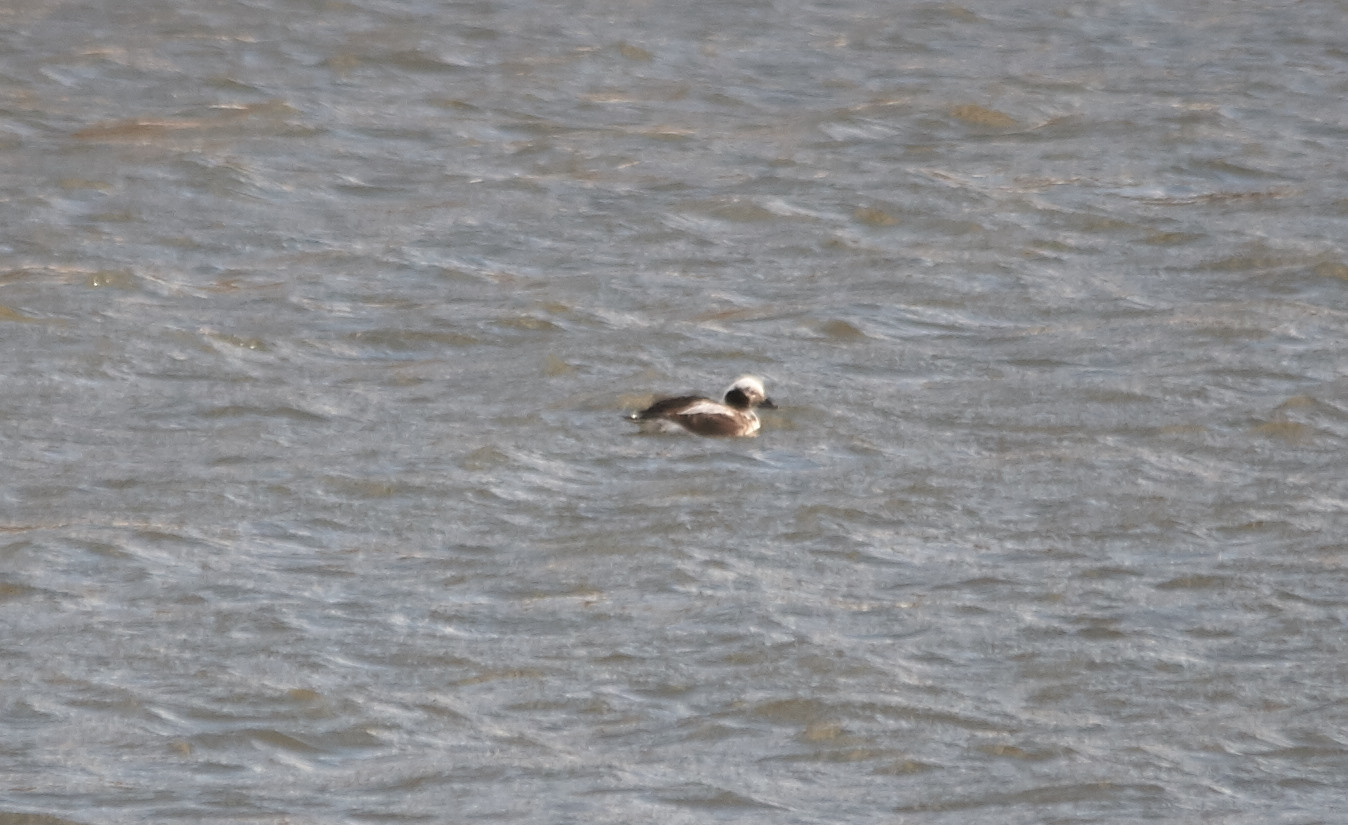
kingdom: Animalia
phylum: Chordata
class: Aves
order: Anseriformes
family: Anatidae
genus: Clangula
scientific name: Clangula hyemalis
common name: Long-tailed duck
